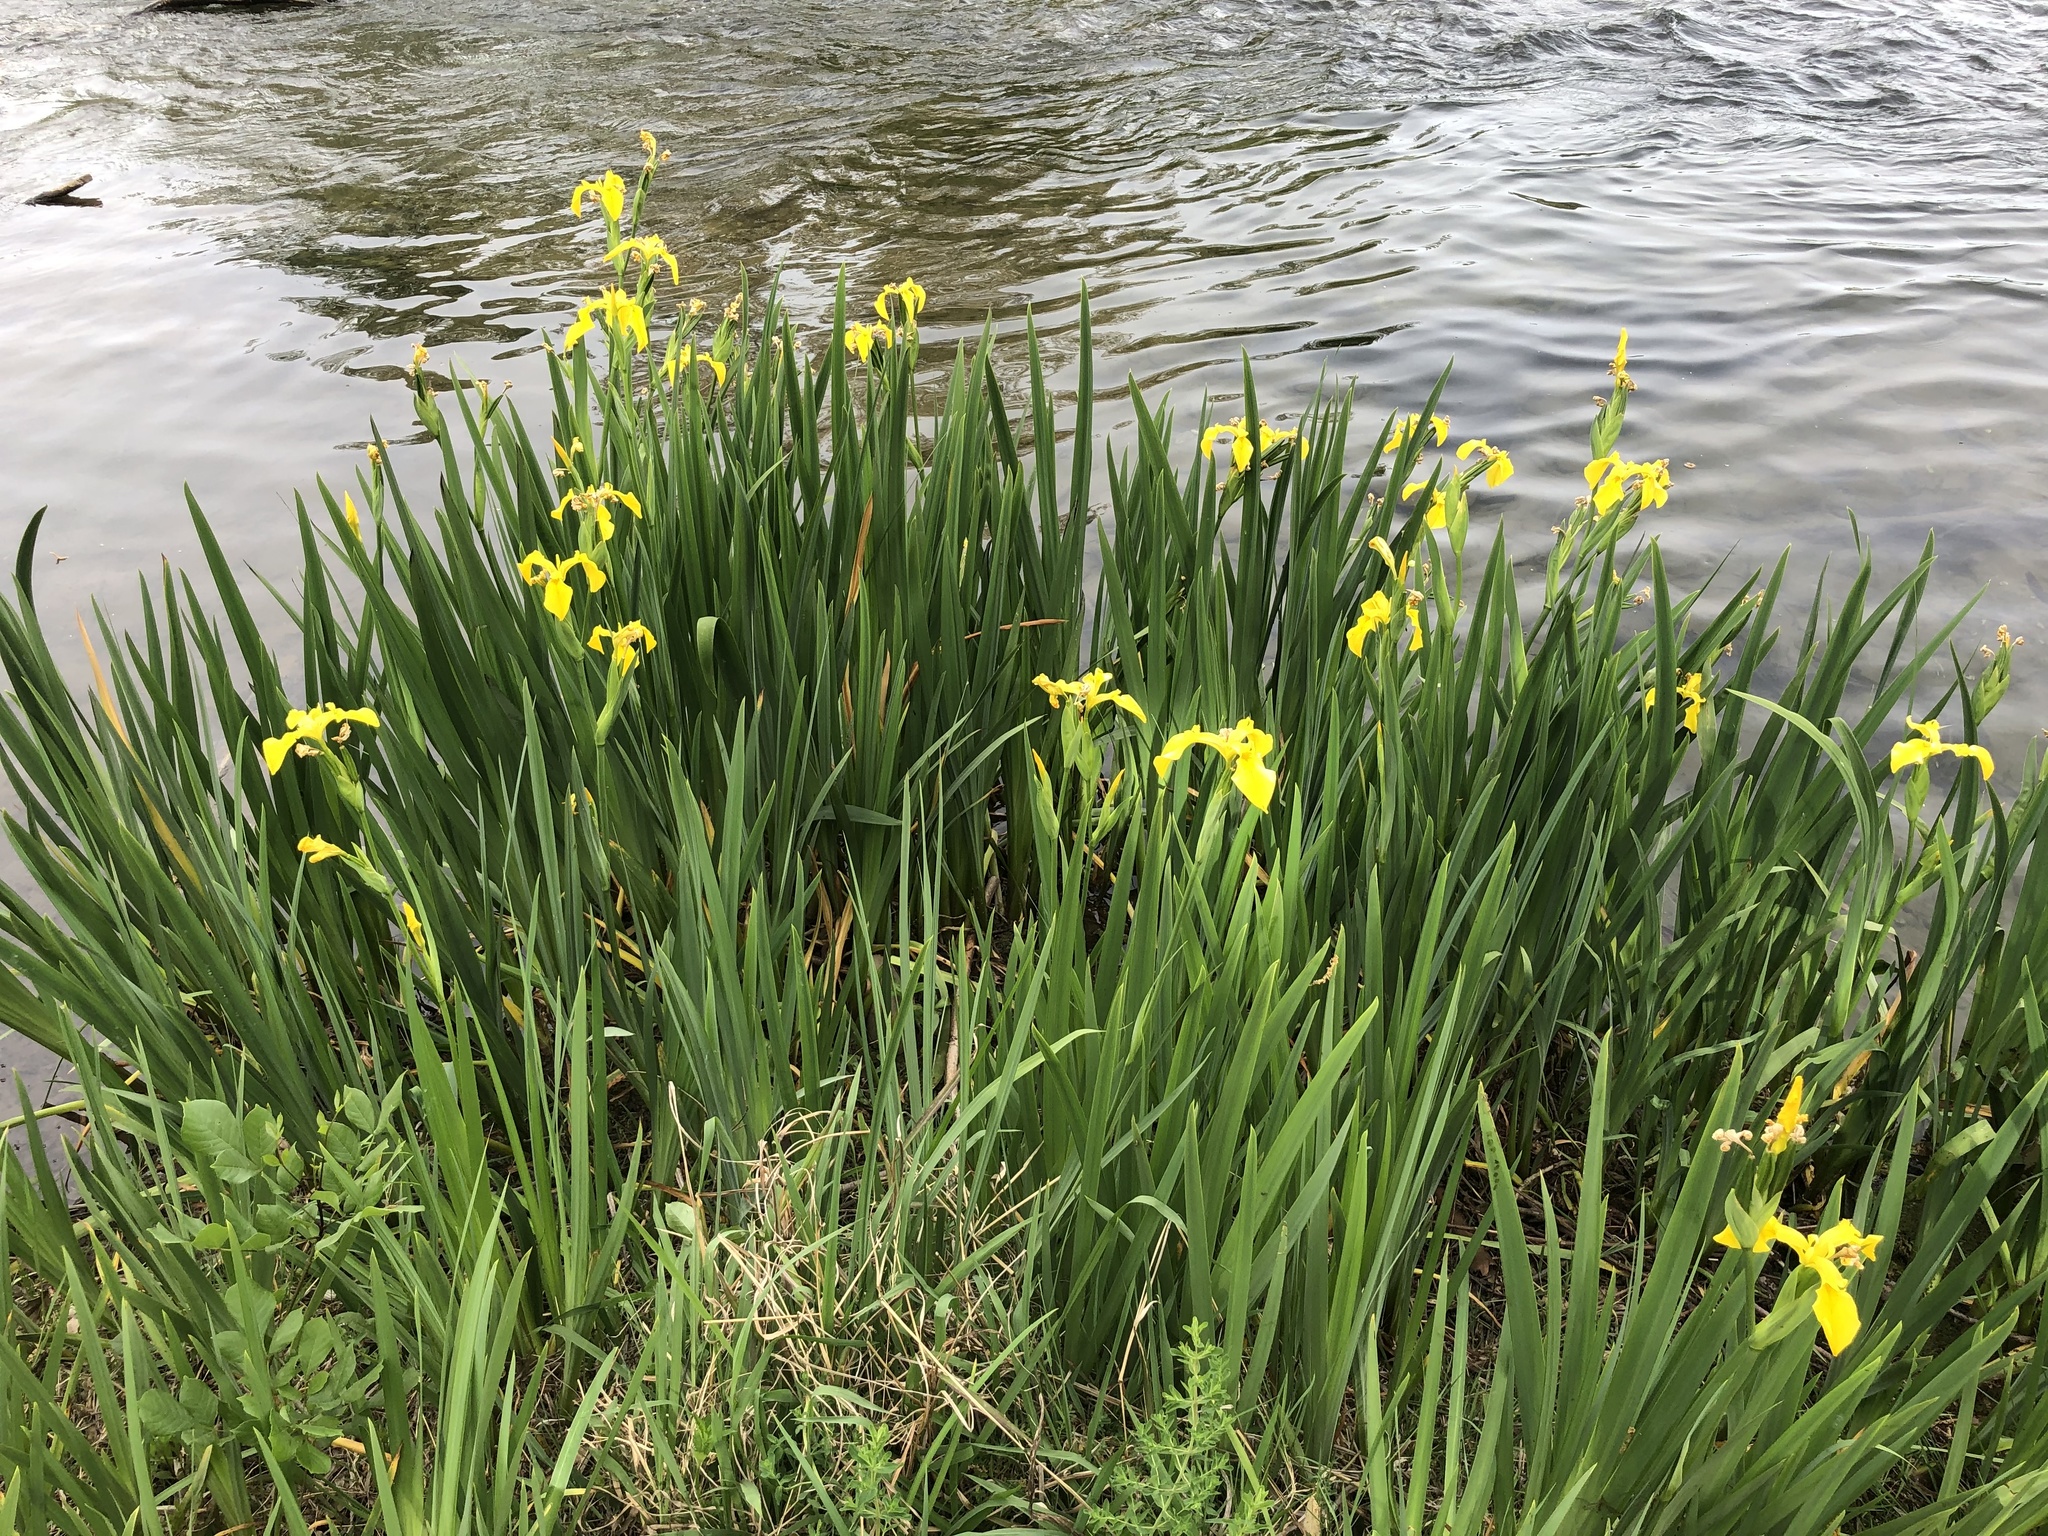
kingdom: Plantae
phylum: Tracheophyta
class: Liliopsida
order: Asparagales
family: Iridaceae
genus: Iris
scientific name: Iris pseudacorus
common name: Yellow flag
